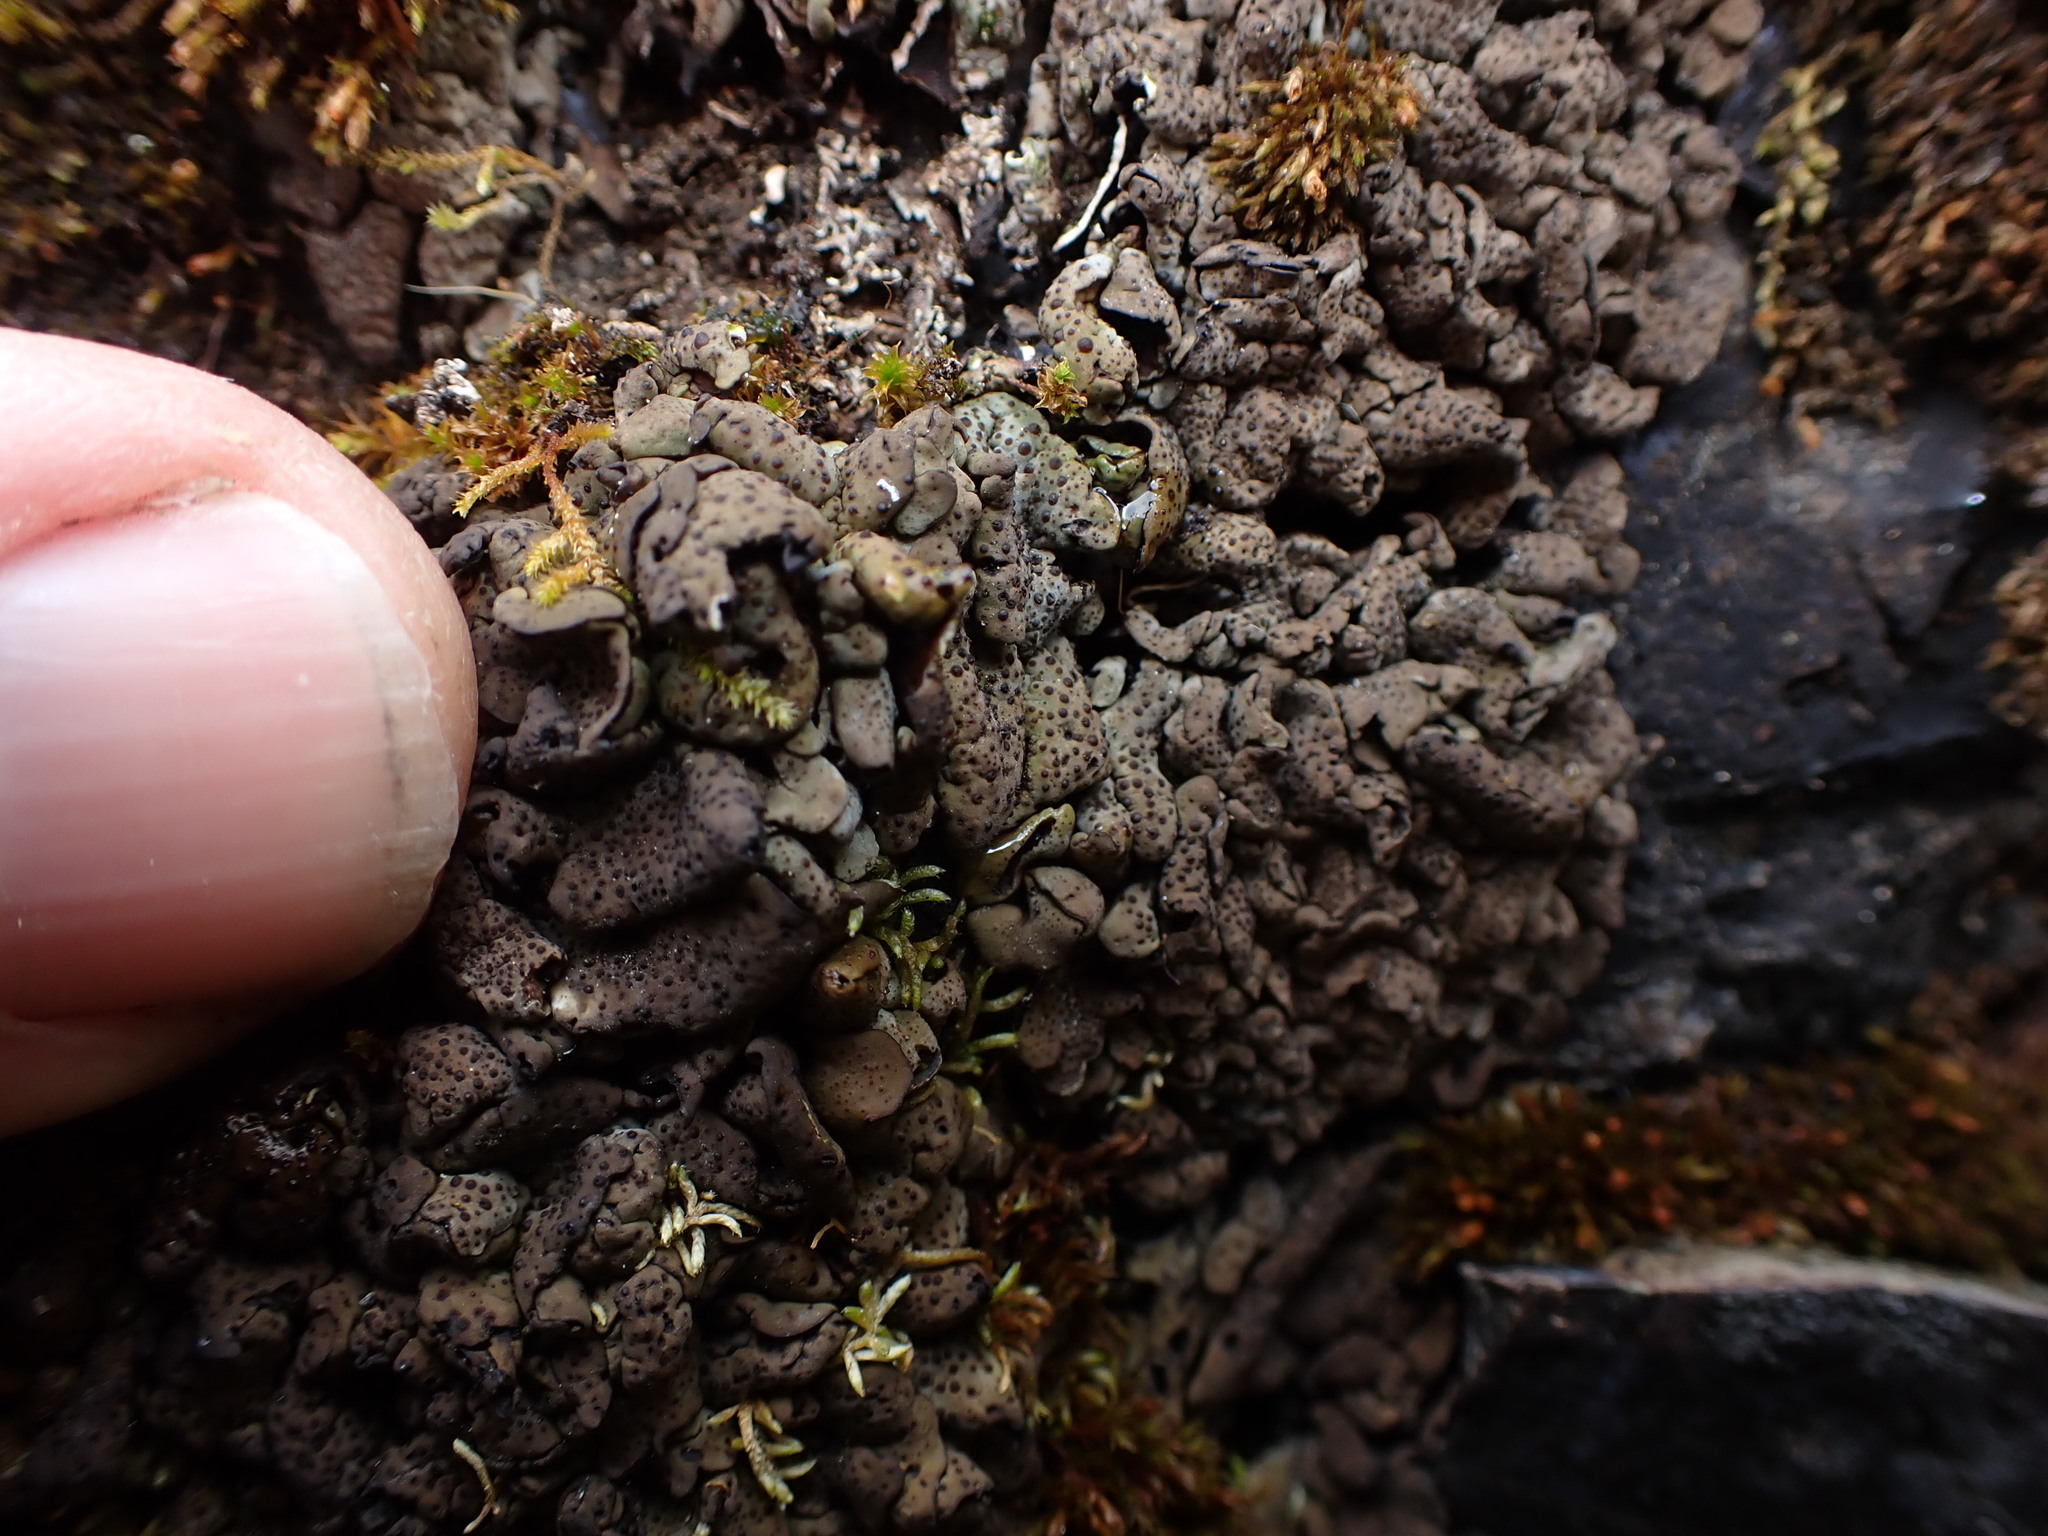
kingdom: Fungi
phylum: Ascomycota
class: Eurotiomycetes
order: Verrucariales
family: Verrucariaceae
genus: Dermatocarpon
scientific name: Dermatocarpon intestiniforme
